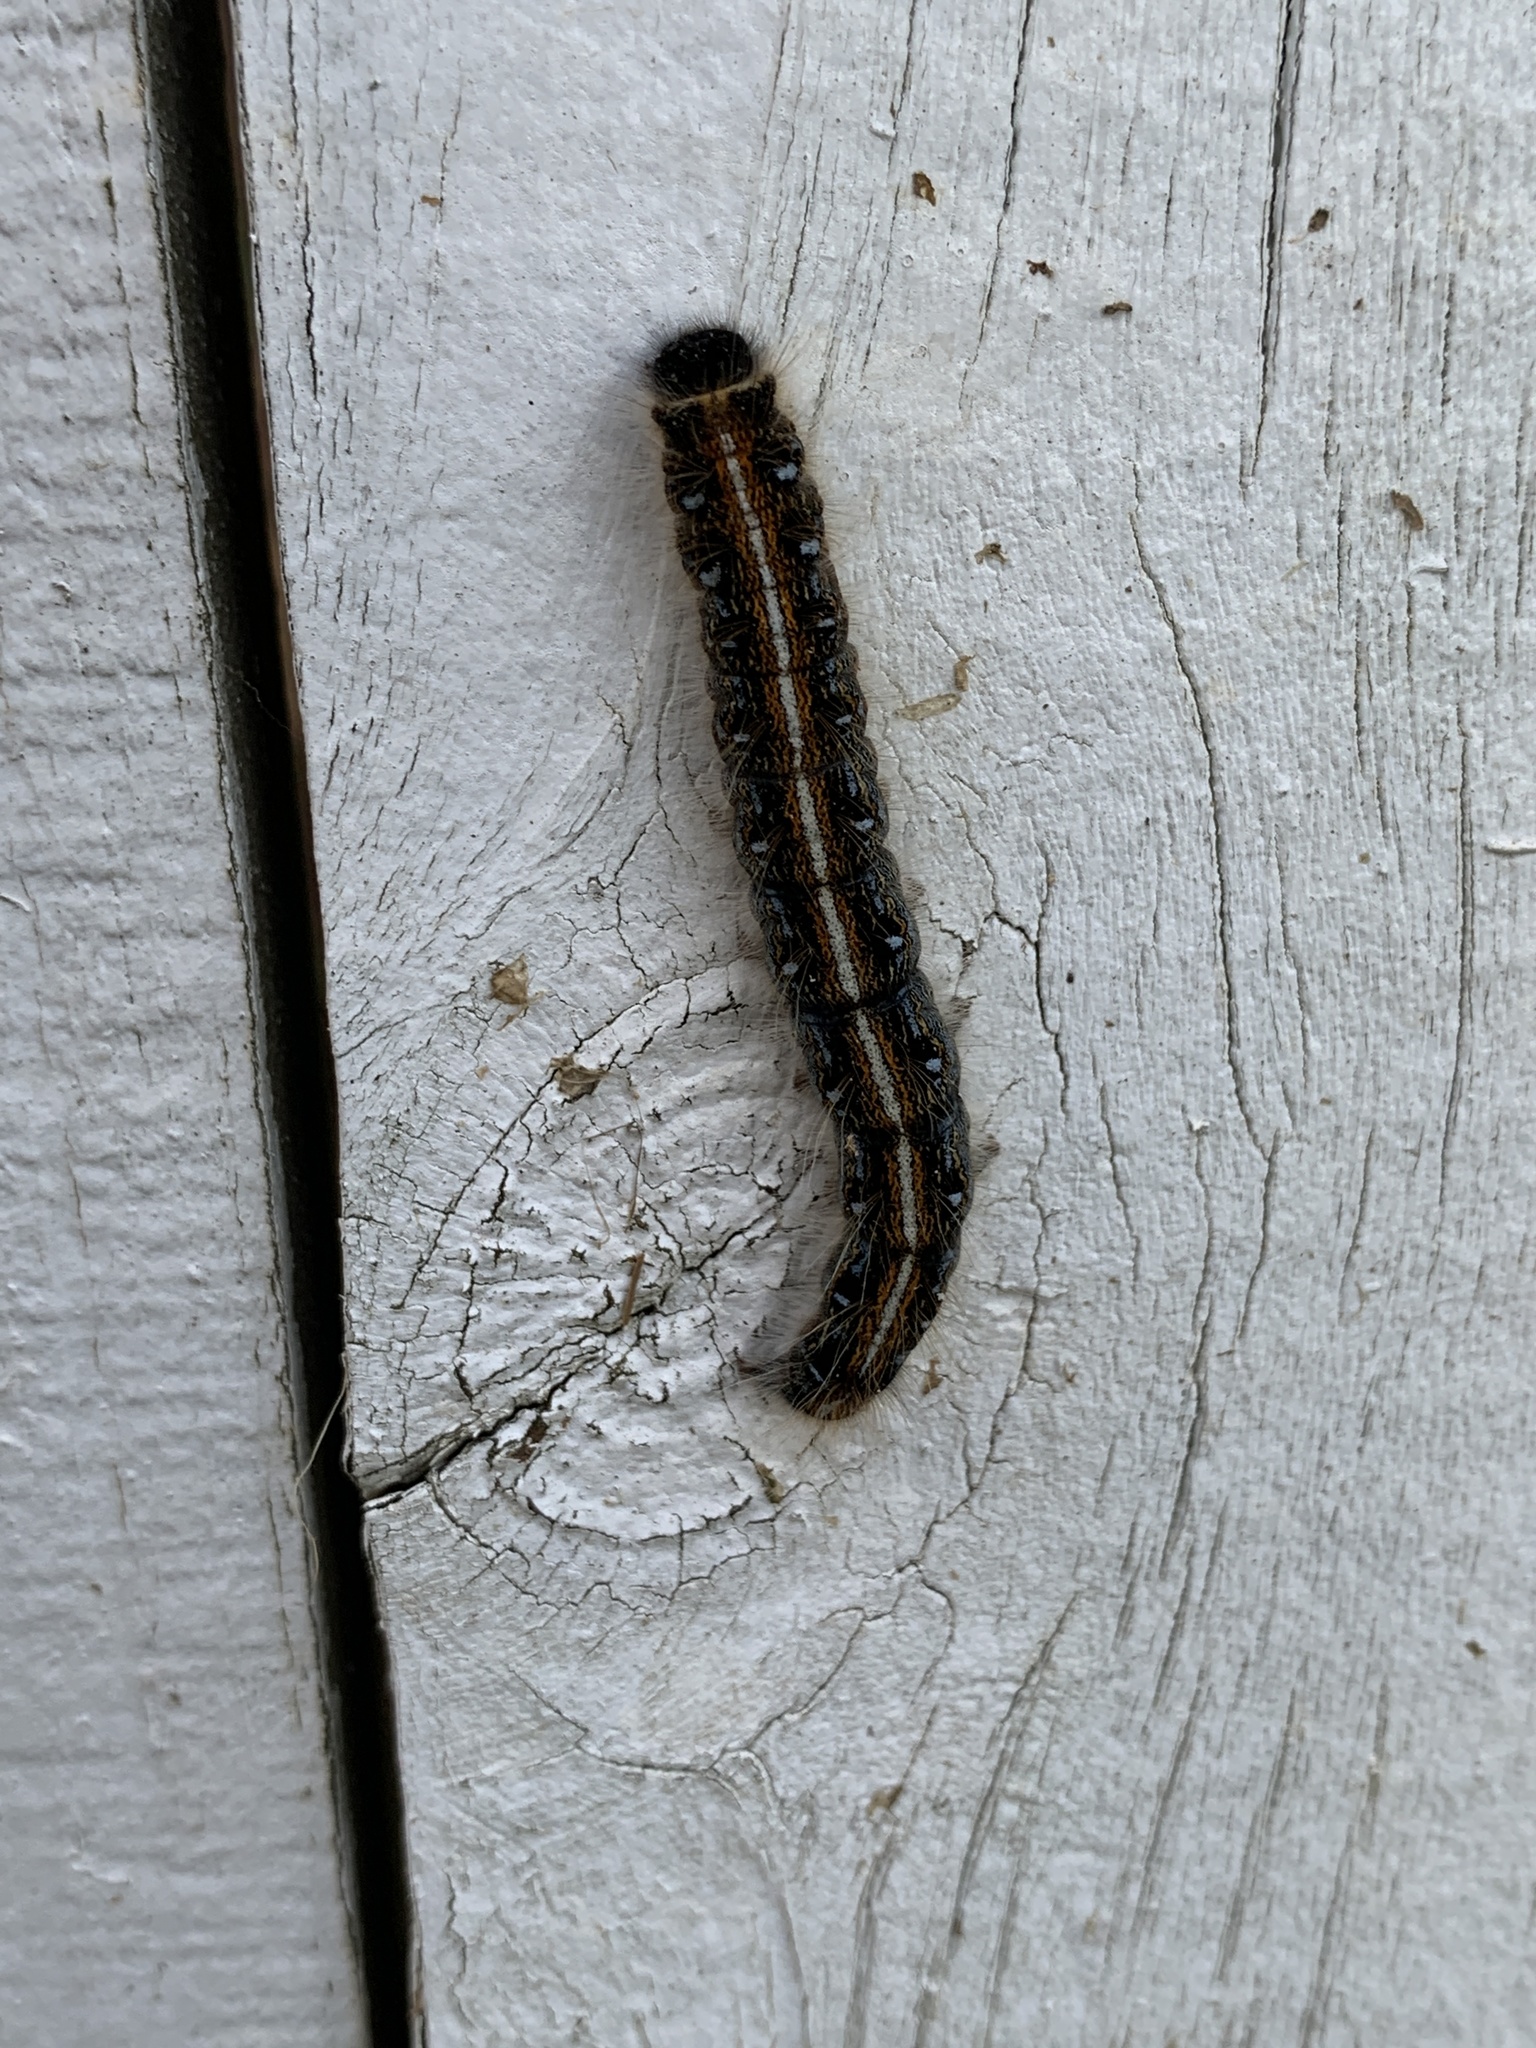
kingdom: Animalia
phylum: Arthropoda
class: Insecta
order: Lepidoptera
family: Lasiocampidae
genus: Malacosoma
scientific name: Malacosoma americana
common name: Eastern tent caterpillar moth
